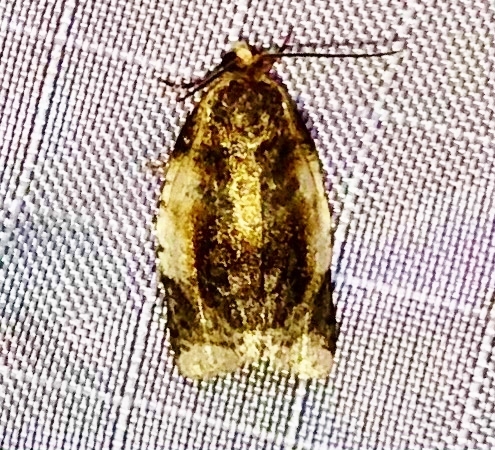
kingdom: Animalia
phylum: Arthropoda
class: Insecta
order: Lepidoptera
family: Tortricidae
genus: Clepsis
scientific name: Clepsis melaleucanus
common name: American apple tortrix
